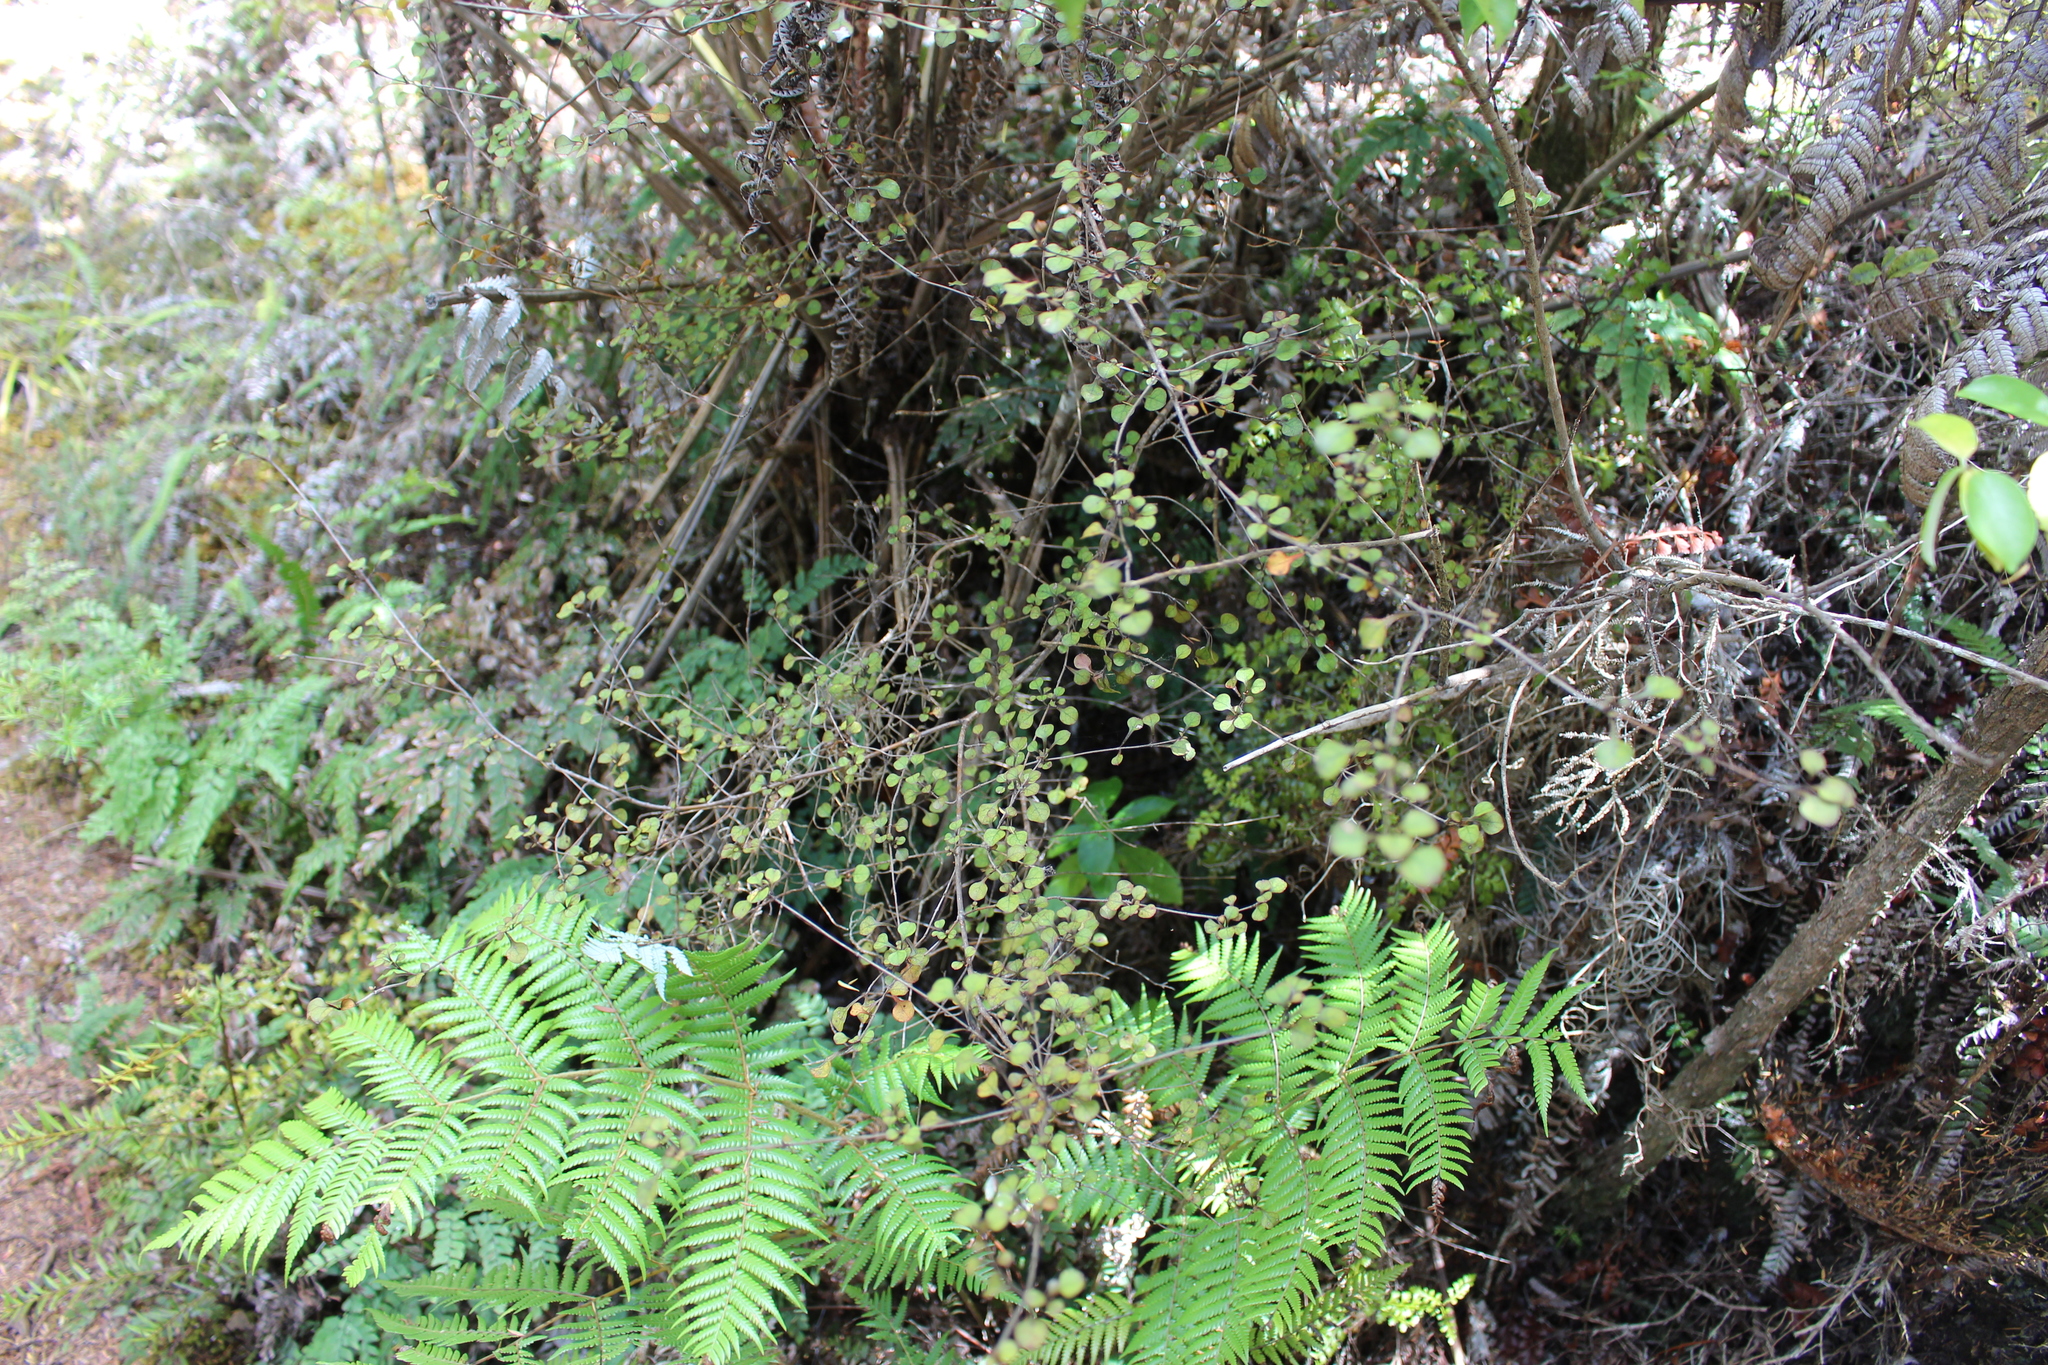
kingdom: Plantae
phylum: Tracheophyta
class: Magnoliopsida
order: Gentianales
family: Rubiaceae
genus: Coprosma
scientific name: Coprosma arborea
